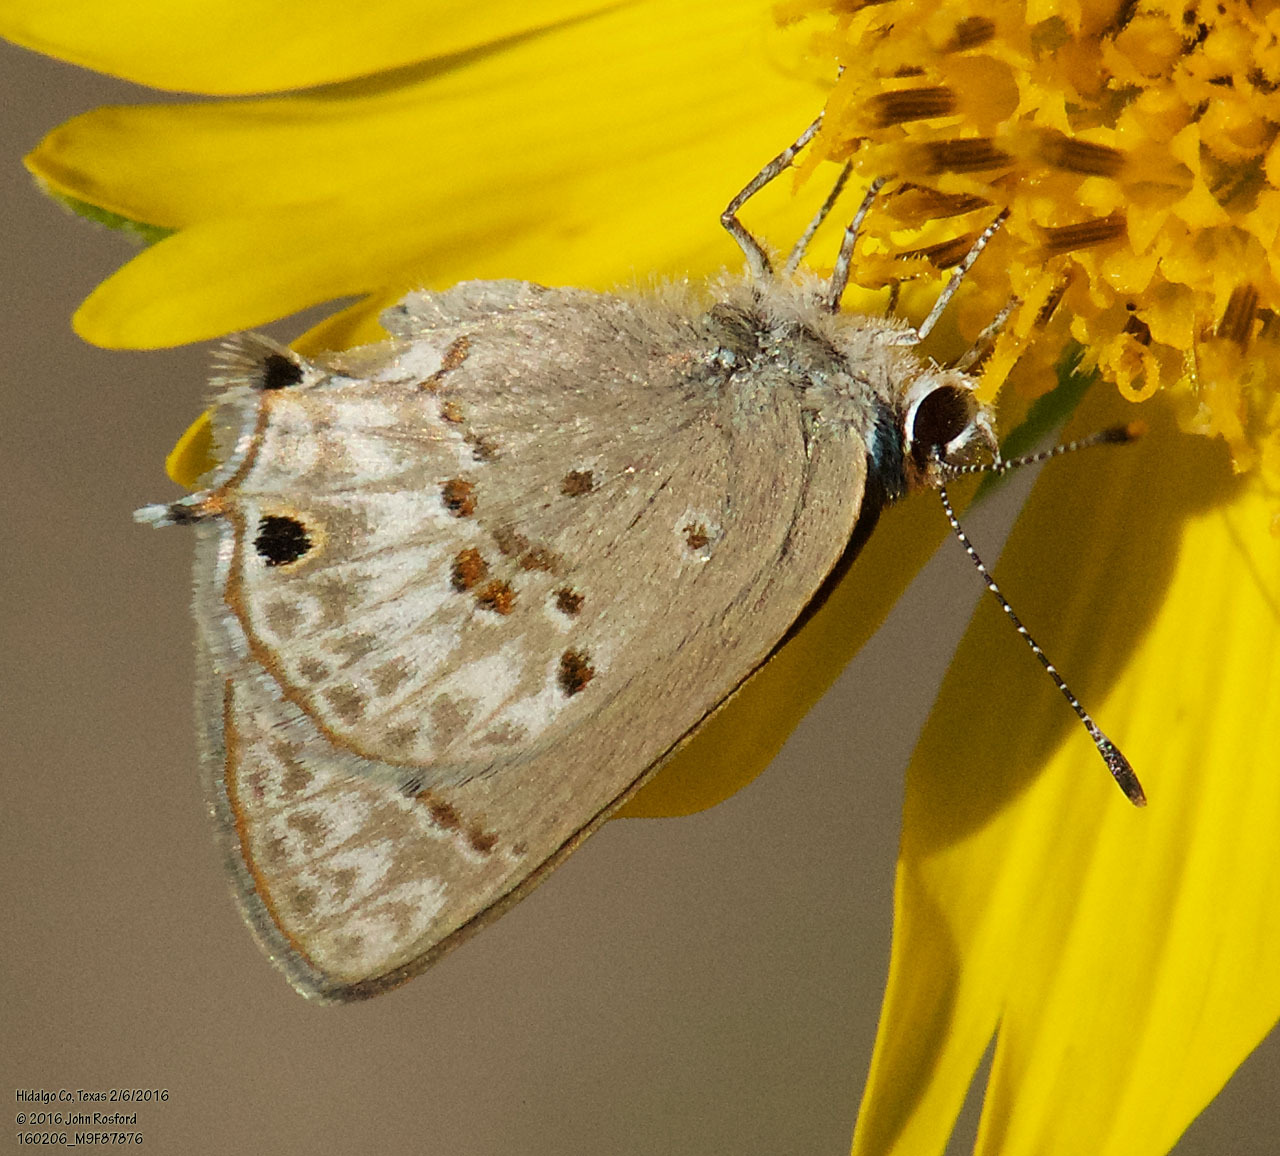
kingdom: Animalia
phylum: Arthropoda
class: Insecta
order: Lepidoptera
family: Lycaenidae
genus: Callicista
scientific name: Callicista columella
